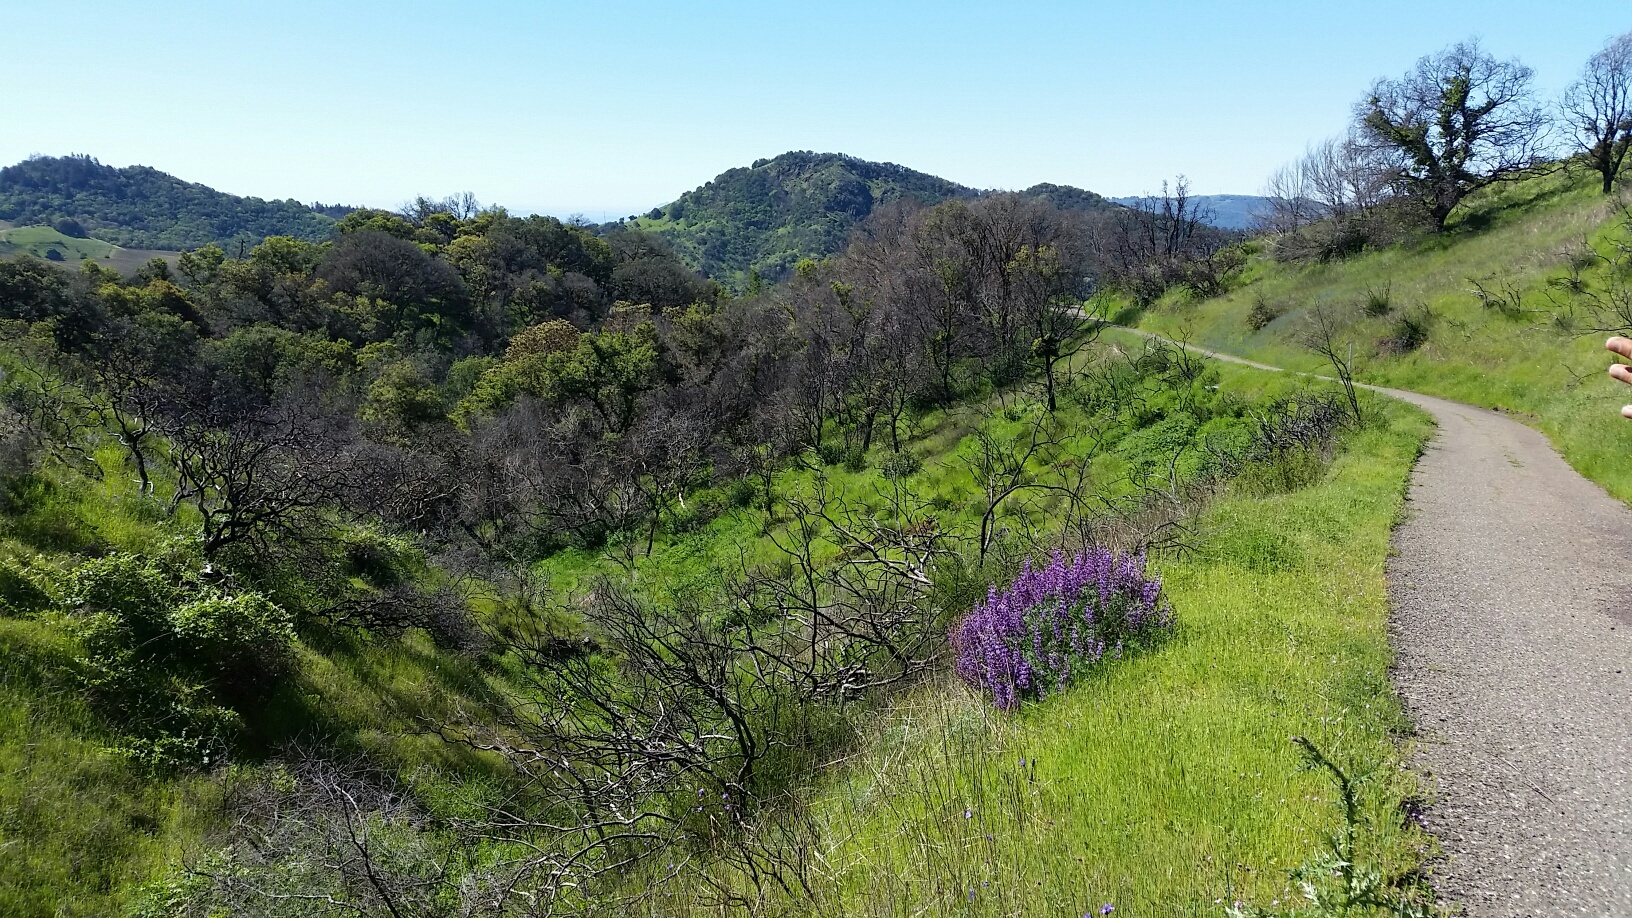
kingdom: Plantae
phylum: Tracheophyta
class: Magnoliopsida
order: Fabales
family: Fabaceae
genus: Lupinus
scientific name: Lupinus albifrons
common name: Foothill lupine
